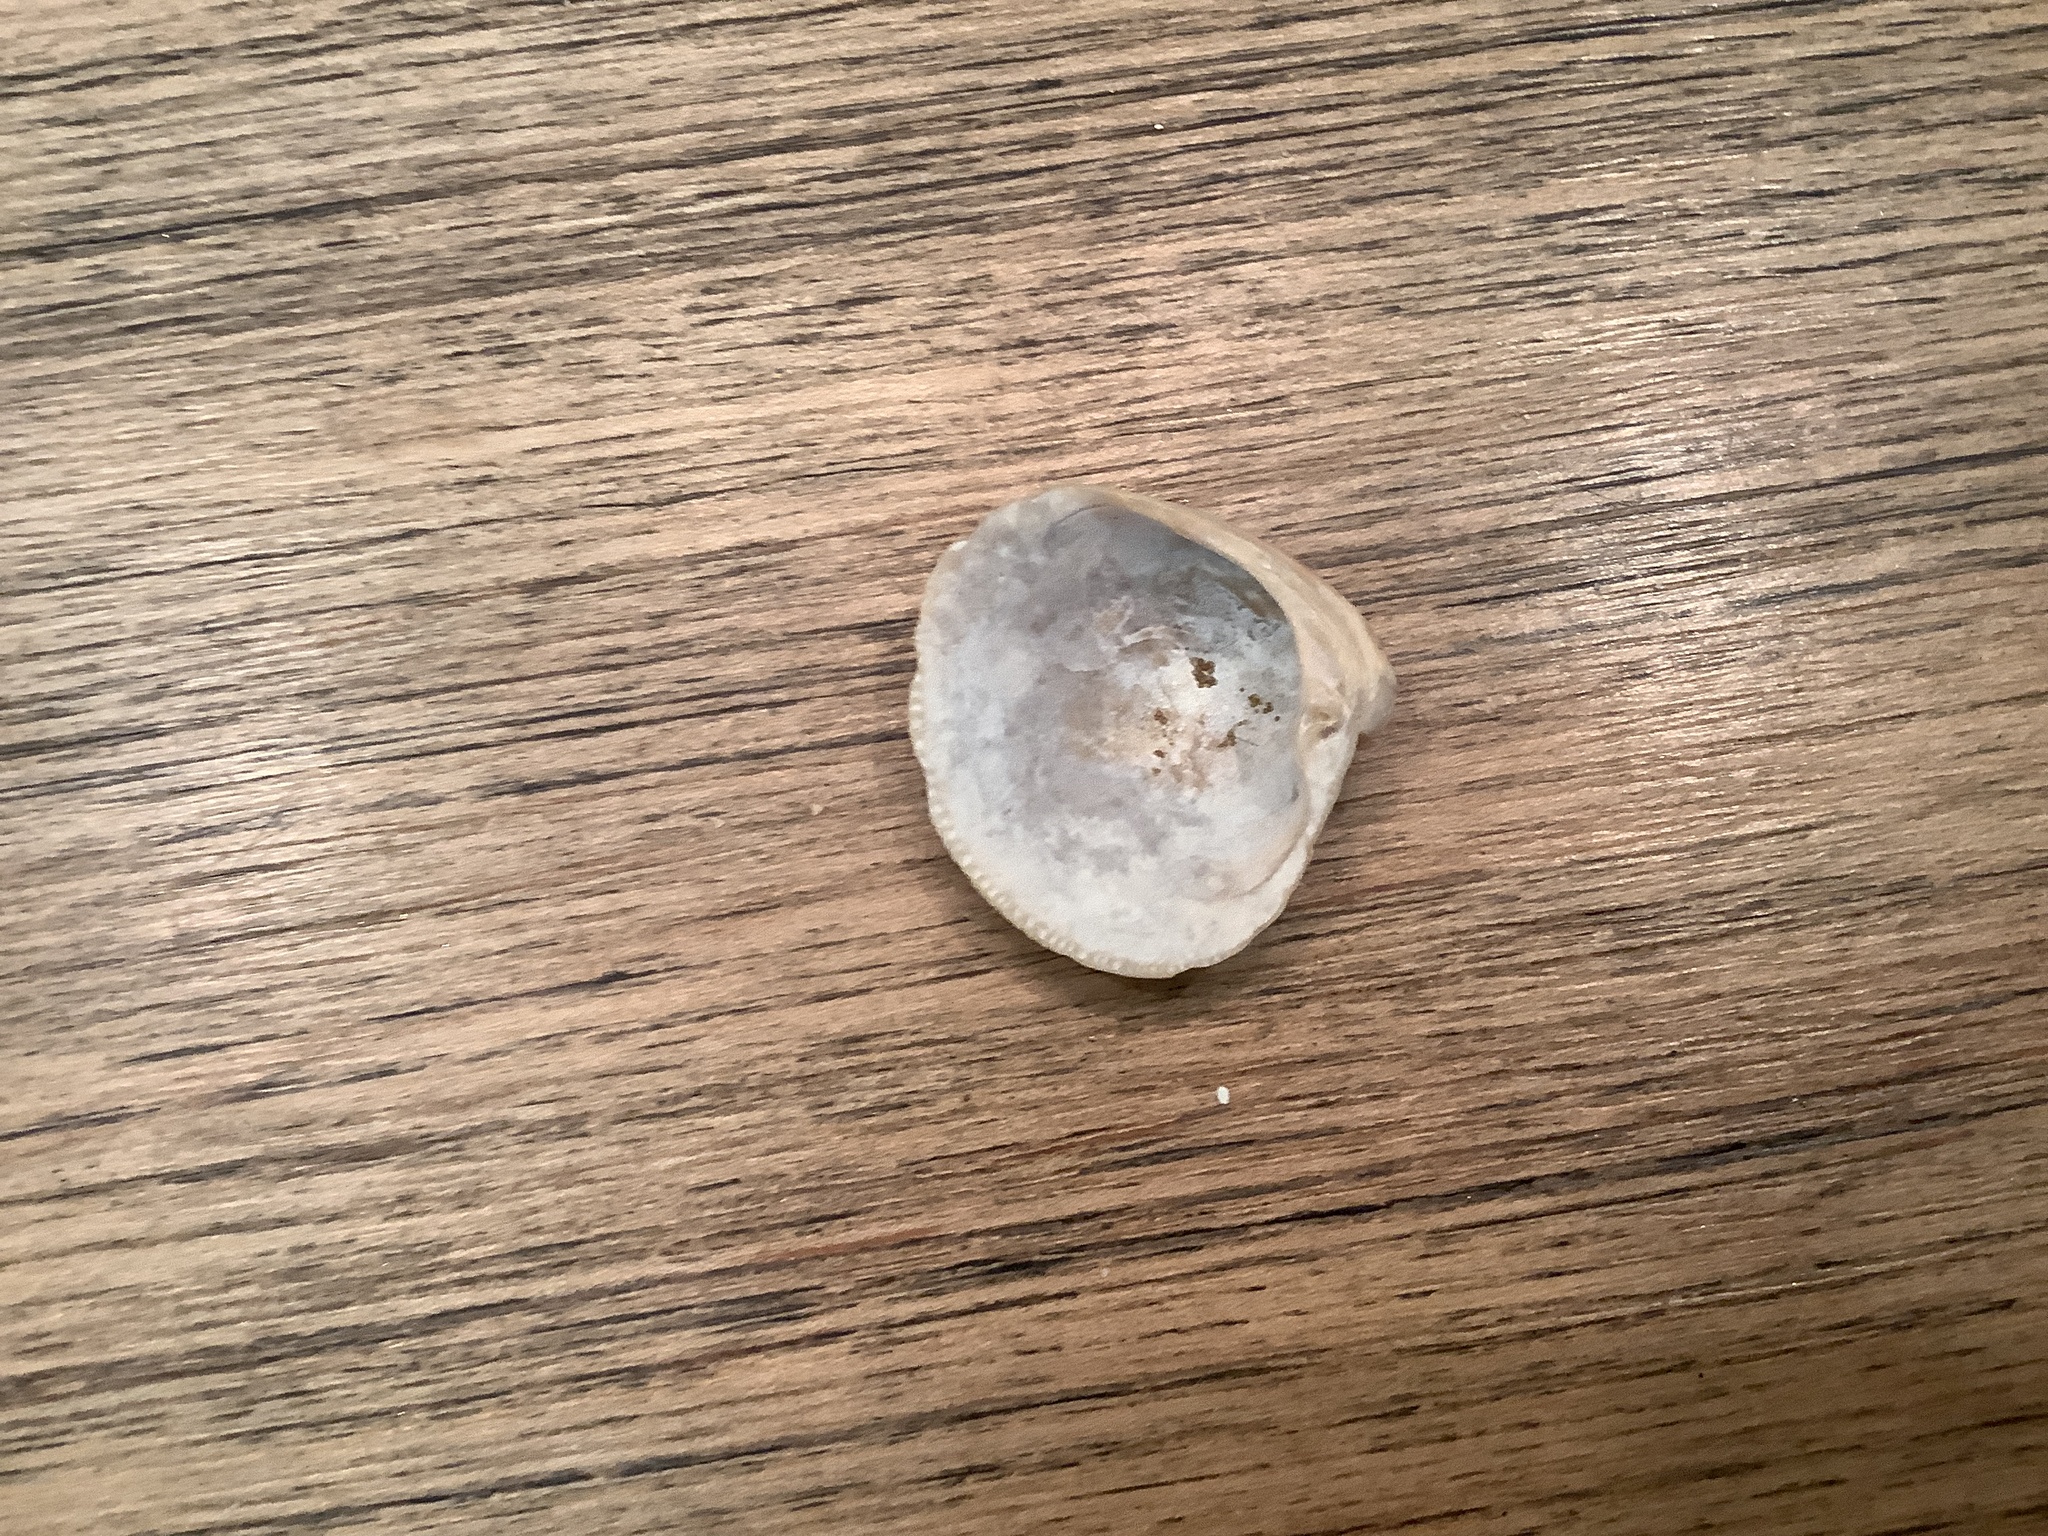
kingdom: Animalia
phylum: Mollusca
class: Bivalvia
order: Venerida
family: Veneridae
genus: Chionopsis
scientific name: Chionopsis intapurpurea
